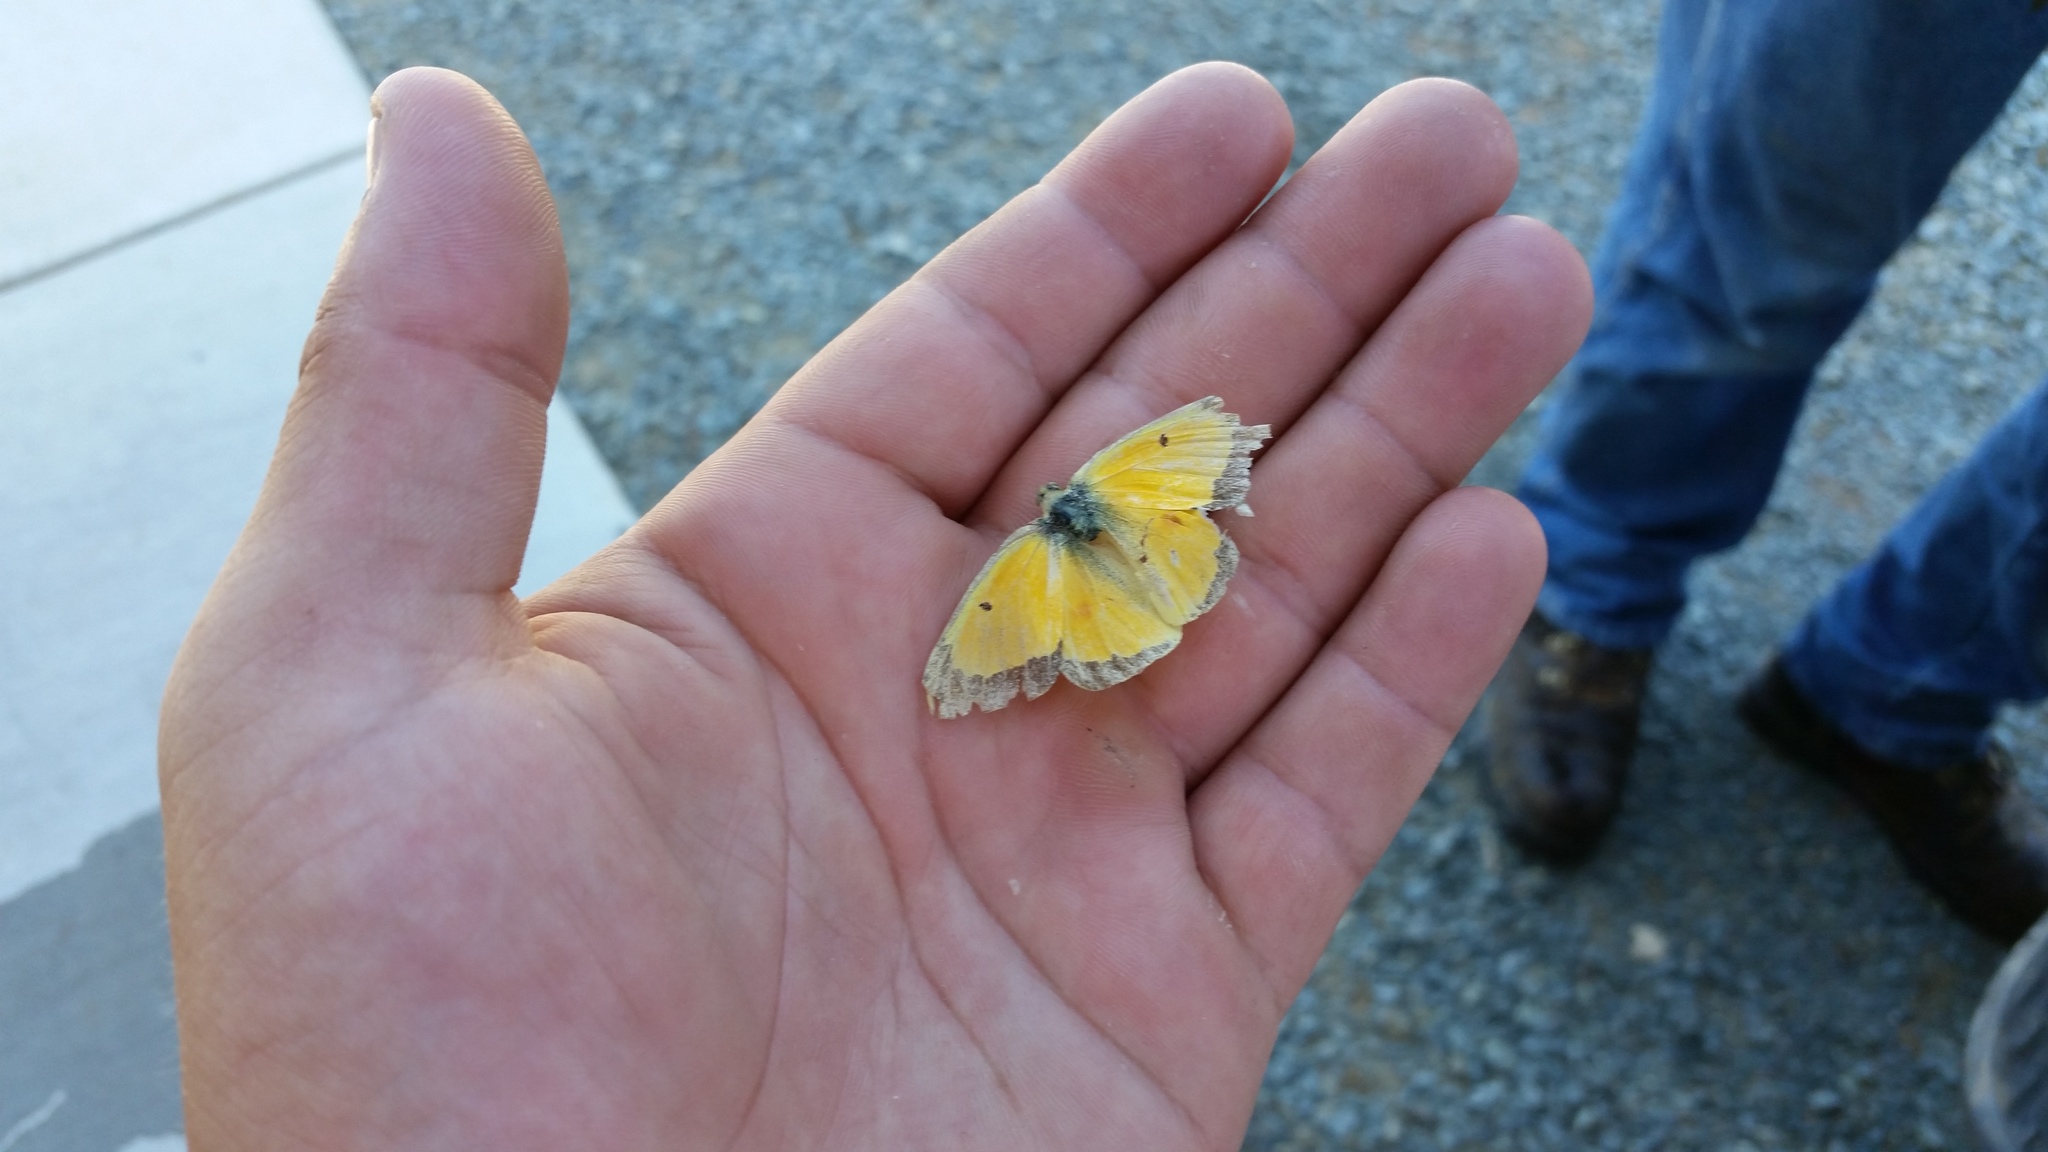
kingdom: Animalia
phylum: Arthropoda
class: Insecta
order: Lepidoptera
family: Pieridae
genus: Colias
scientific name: Colias eurytheme
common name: Alfalfa butterfly
